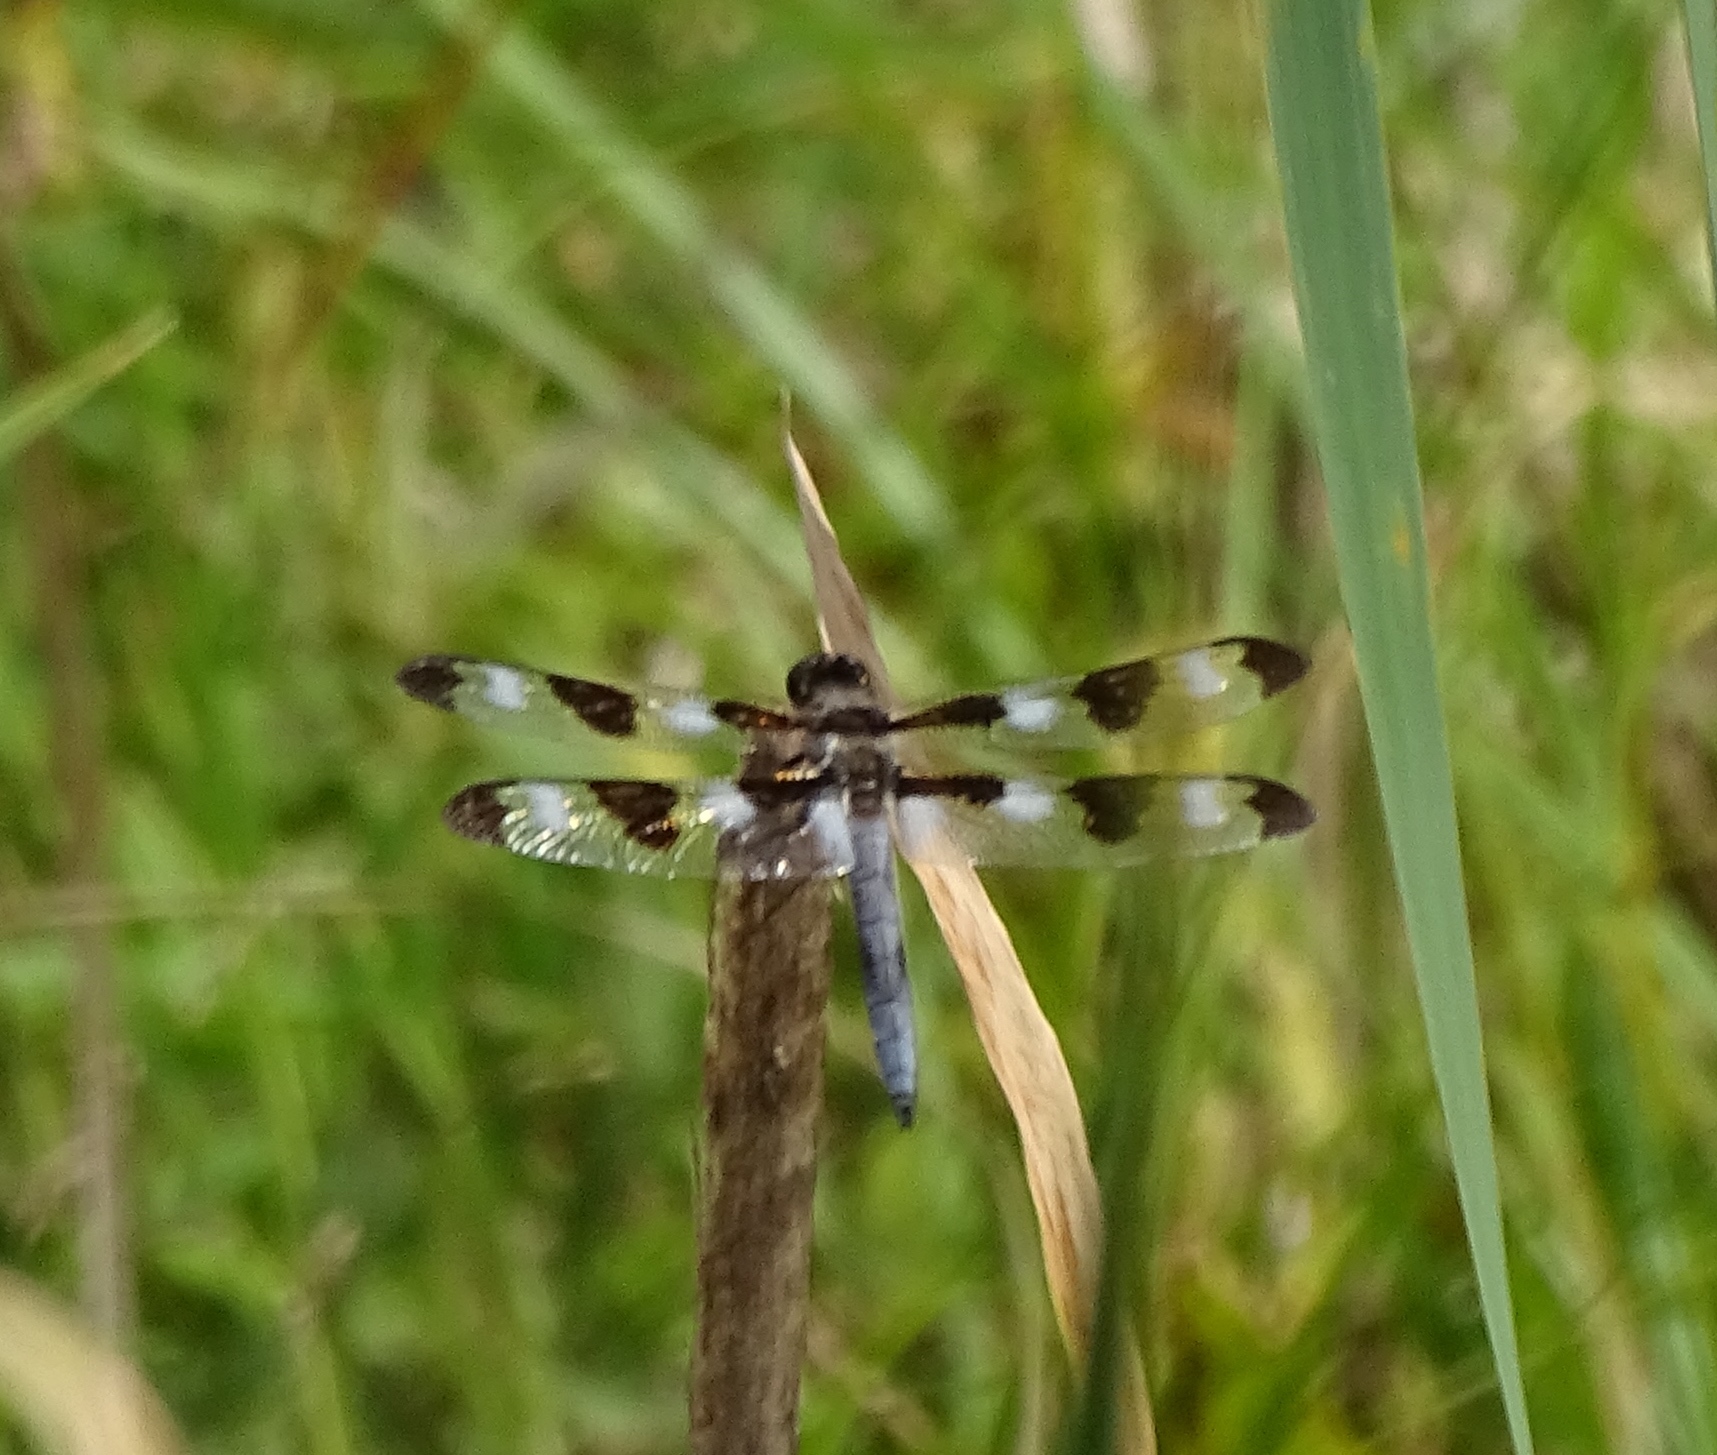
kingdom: Animalia
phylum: Arthropoda
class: Insecta
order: Odonata
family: Libellulidae
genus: Libellula
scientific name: Libellula pulchella
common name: Twelve-spotted skimmer
